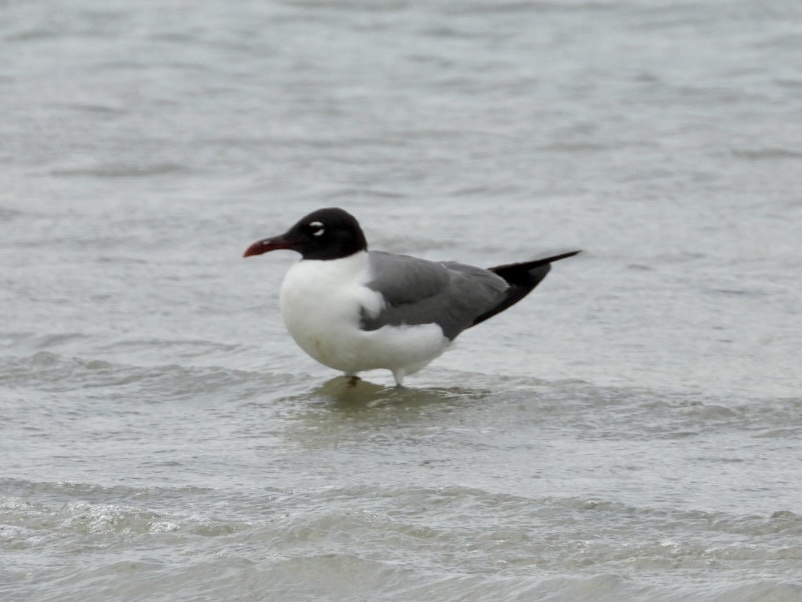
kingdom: Animalia
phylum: Chordata
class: Aves
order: Charadriiformes
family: Laridae
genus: Leucophaeus
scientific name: Leucophaeus atricilla
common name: Laughing gull
